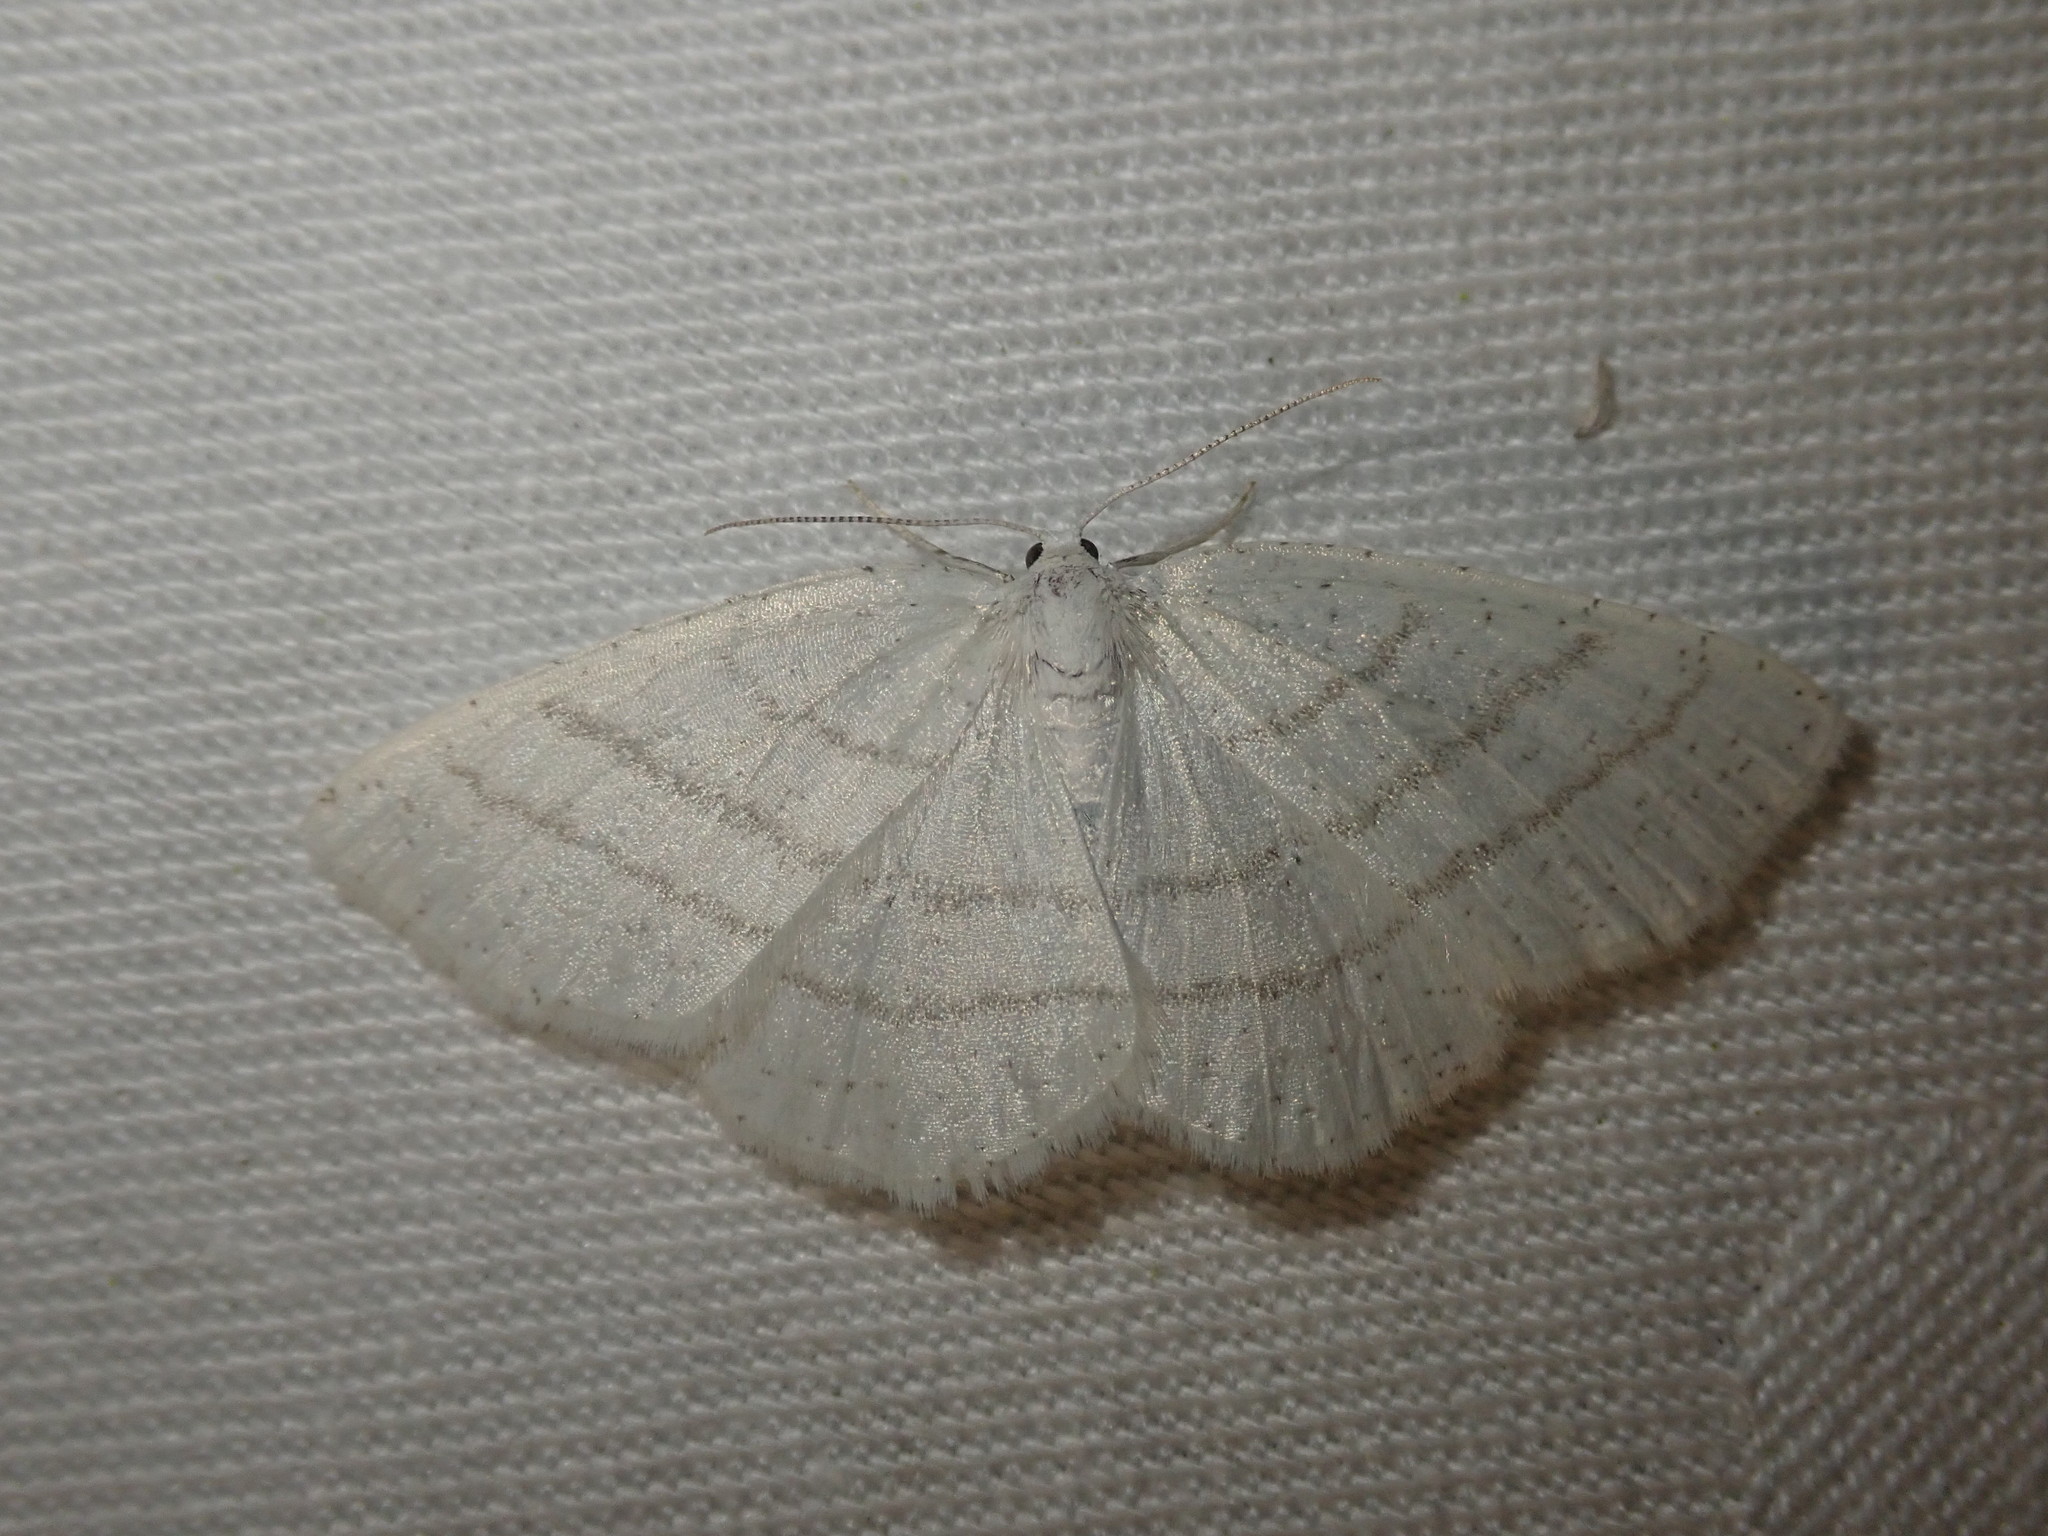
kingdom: Animalia
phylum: Arthropoda
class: Insecta
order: Lepidoptera
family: Geometridae
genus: Cabera
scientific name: Cabera pusaria
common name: Common white wave
